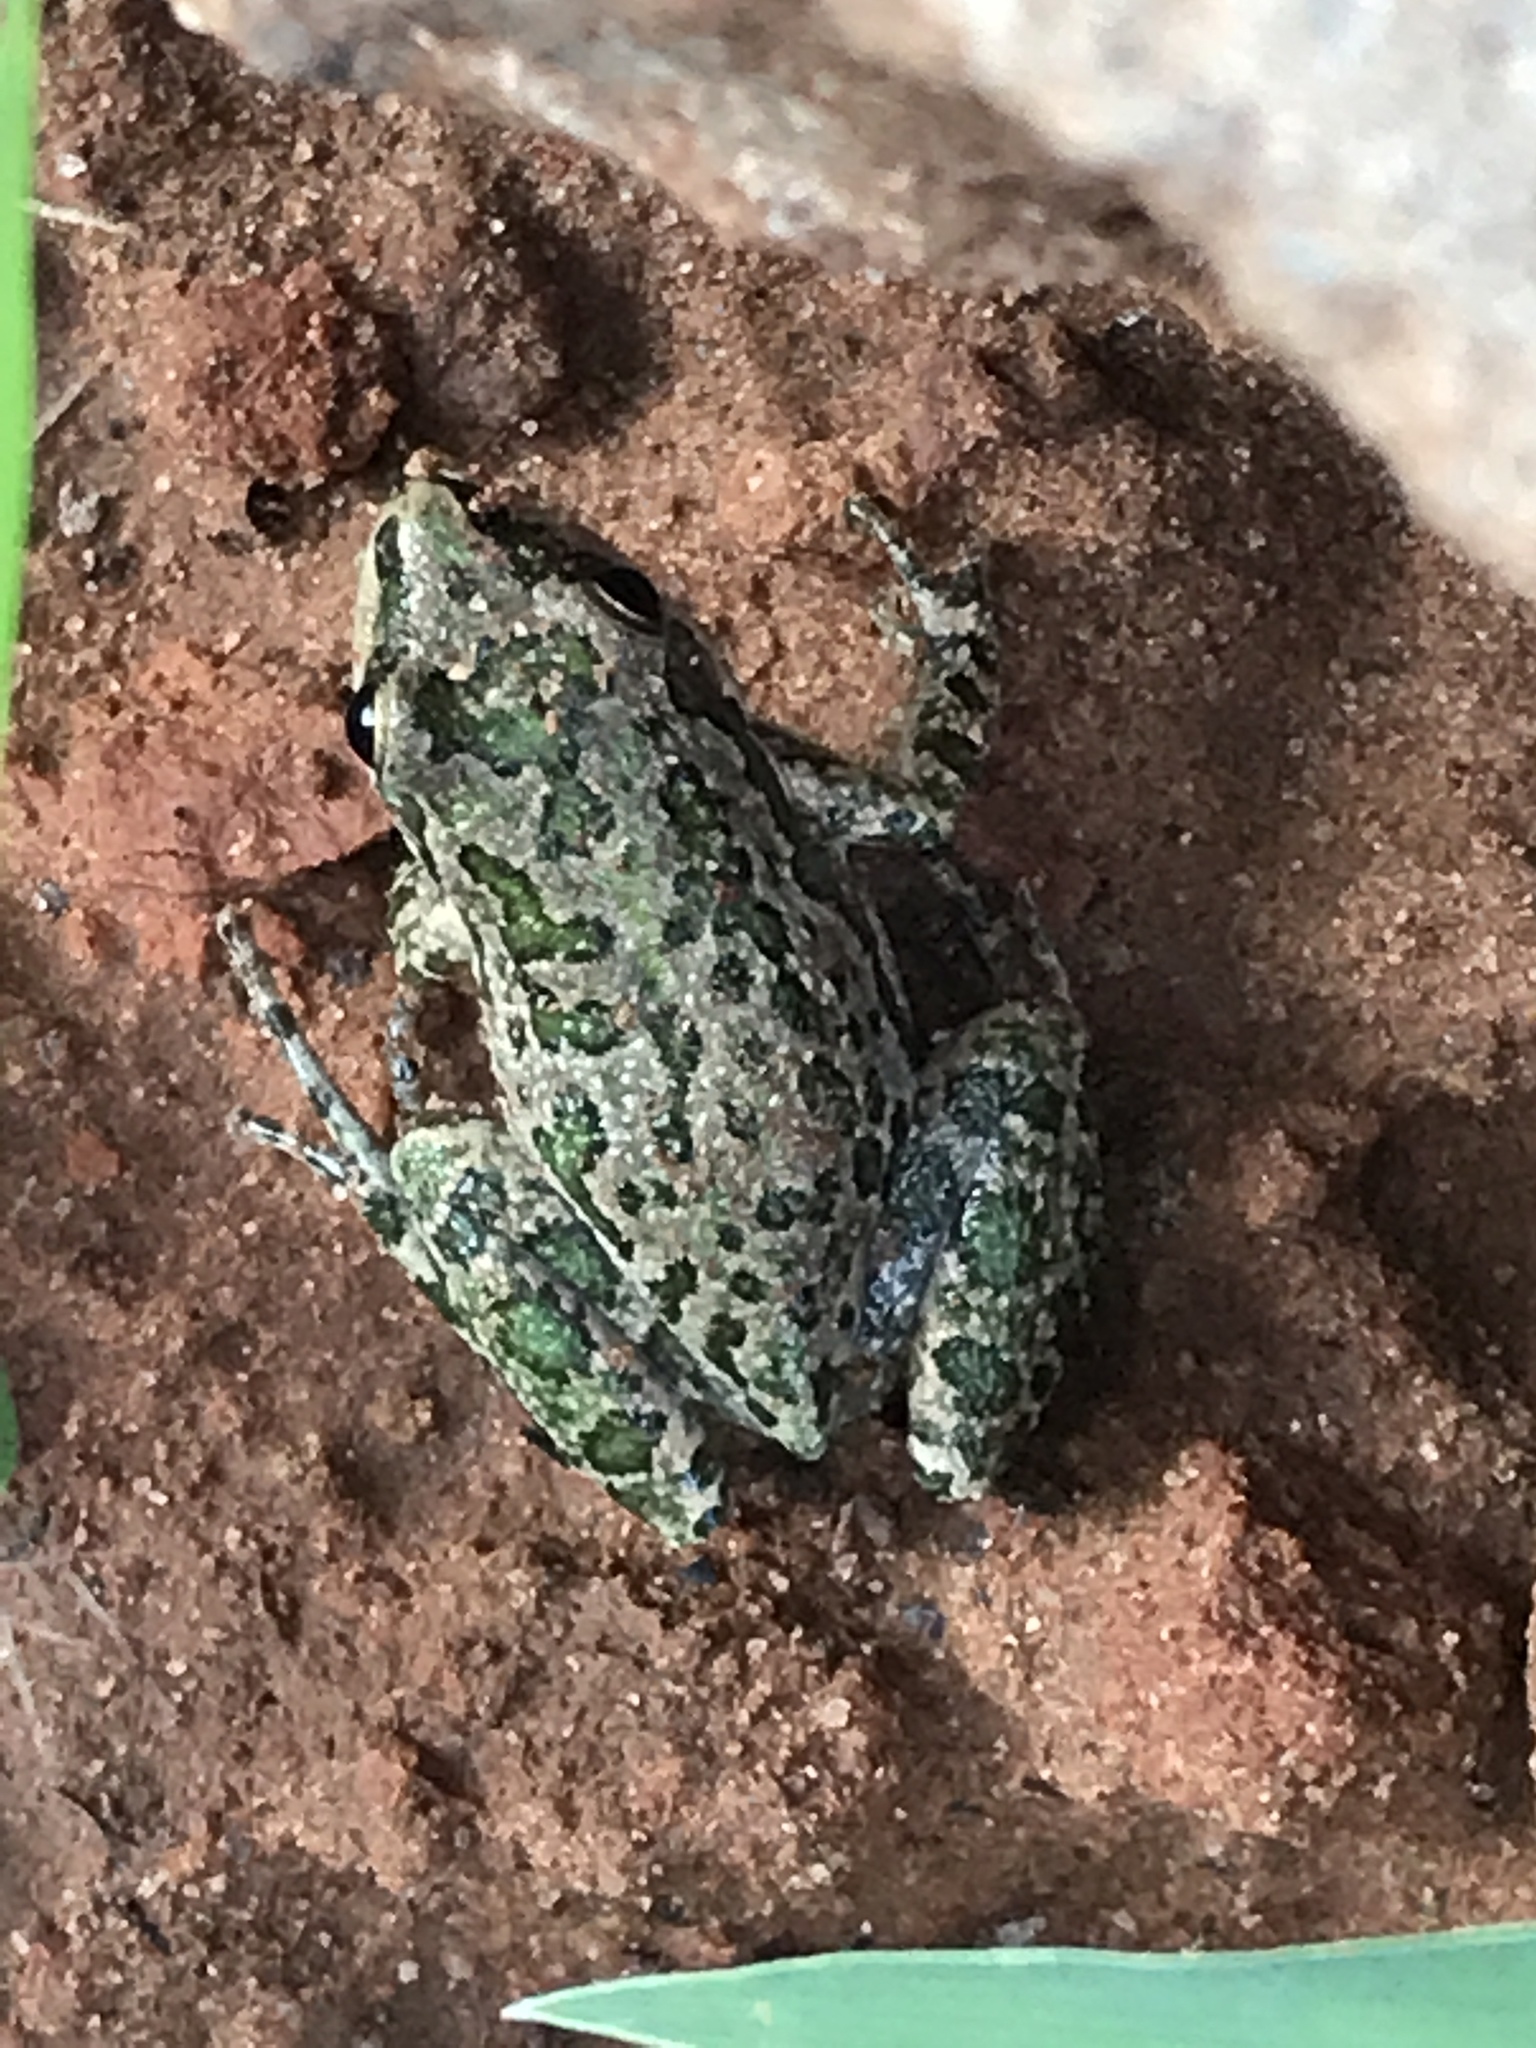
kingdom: Animalia
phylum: Chordata
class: Amphibia
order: Anura
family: Hylidae
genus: Pseudacris
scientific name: Pseudacris clarkii
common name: Spotted chorus frog
